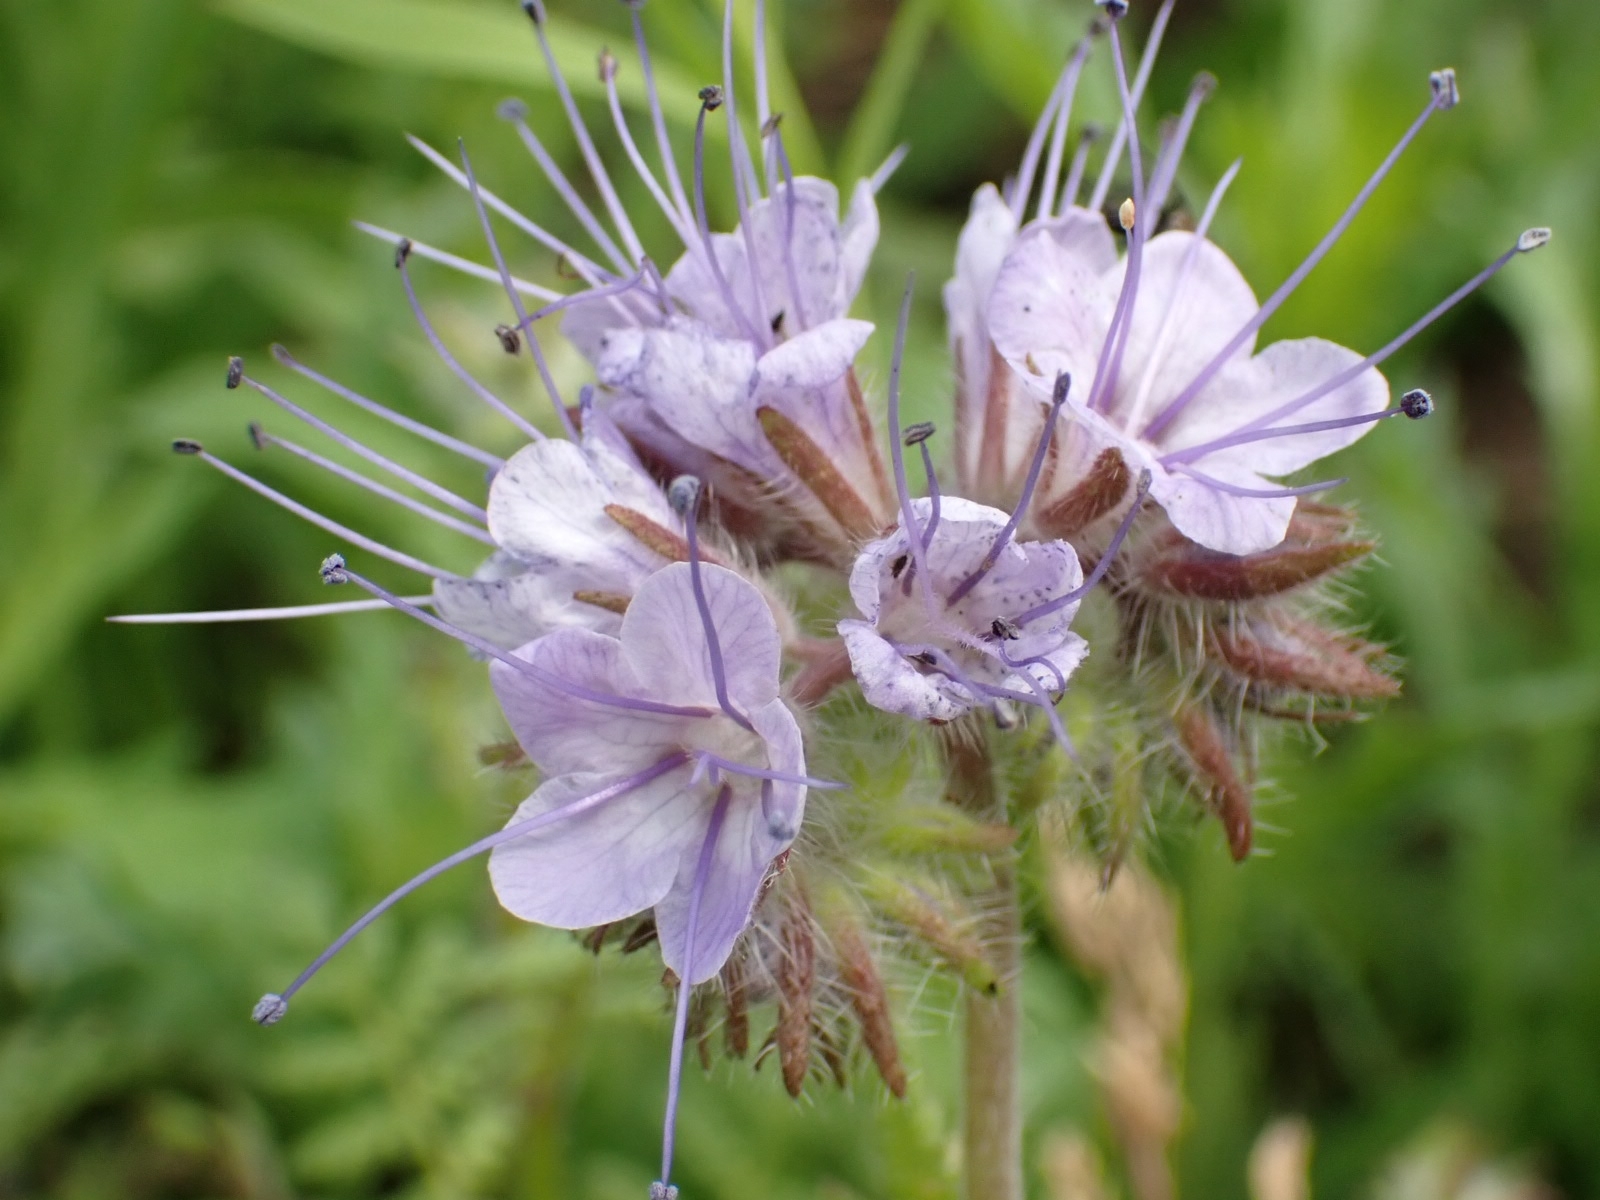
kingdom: Plantae
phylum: Tracheophyta
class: Magnoliopsida
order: Boraginales
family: Hydrophyllaceae
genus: Phacelia
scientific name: Phacelia tanacetifolia
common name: Phacelia
